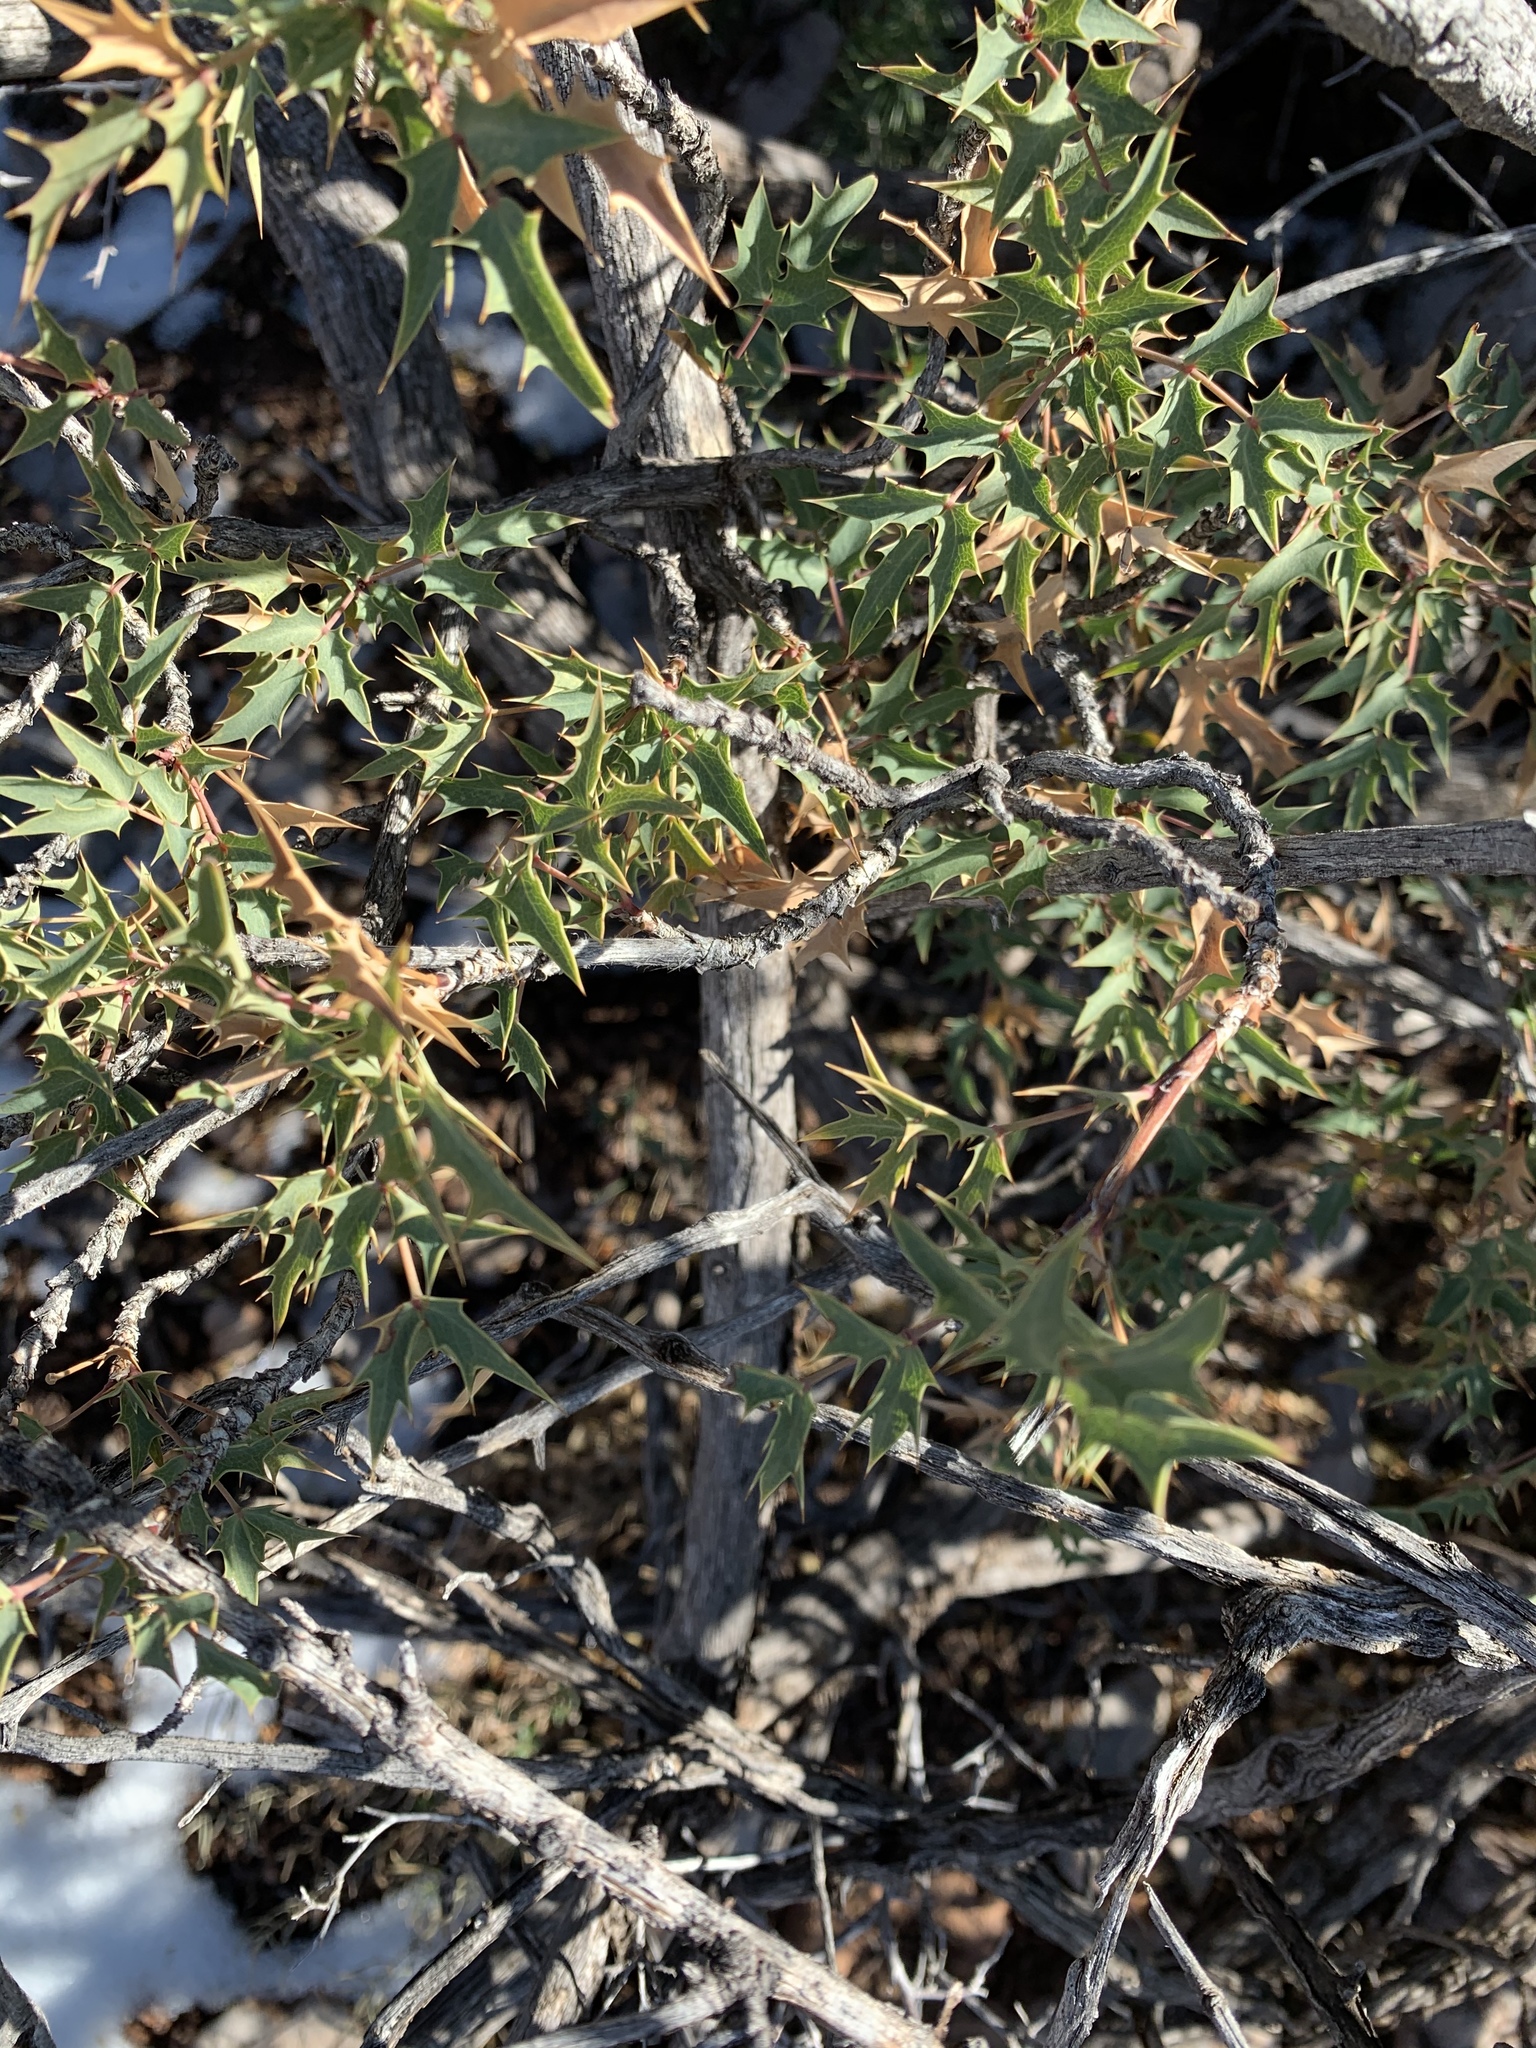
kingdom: Plantae
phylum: Tracheophyta
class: Magnoliopsida
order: Ranunculales
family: Berberidaceae
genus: Alloberberis
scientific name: Alloberberis haematocarpa
